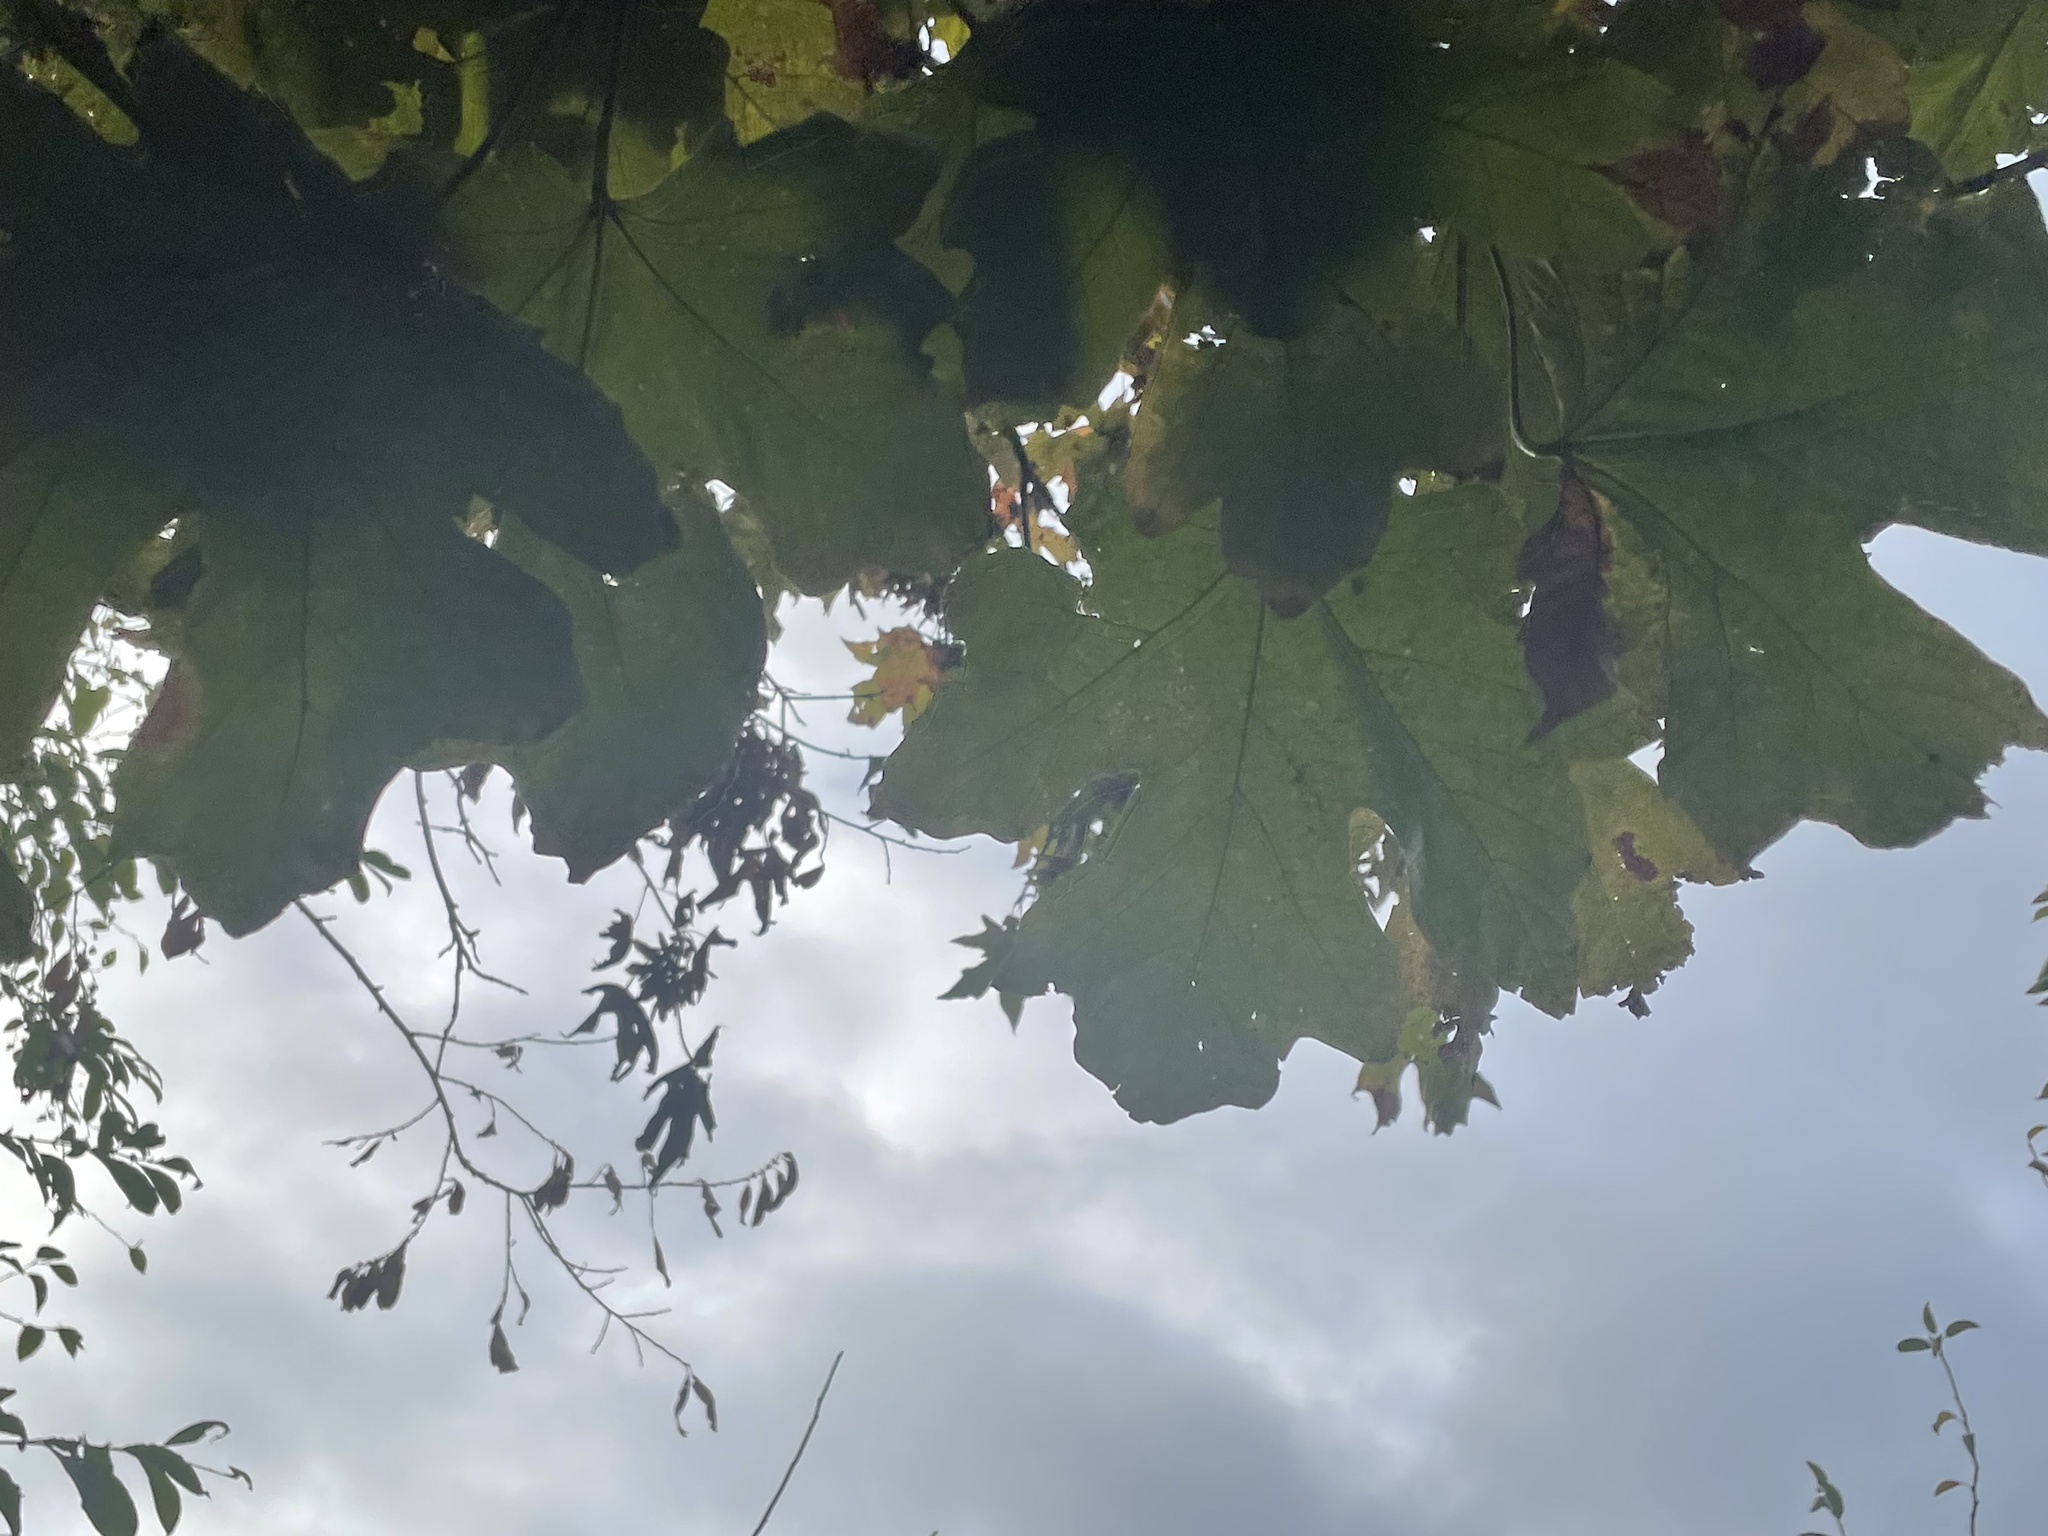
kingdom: Plantae
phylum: Tracheophyta
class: Magnoliopsida
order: Sapindales
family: Sapindaceae
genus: Acer
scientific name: Acer macrophyllum
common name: Oregon maple
